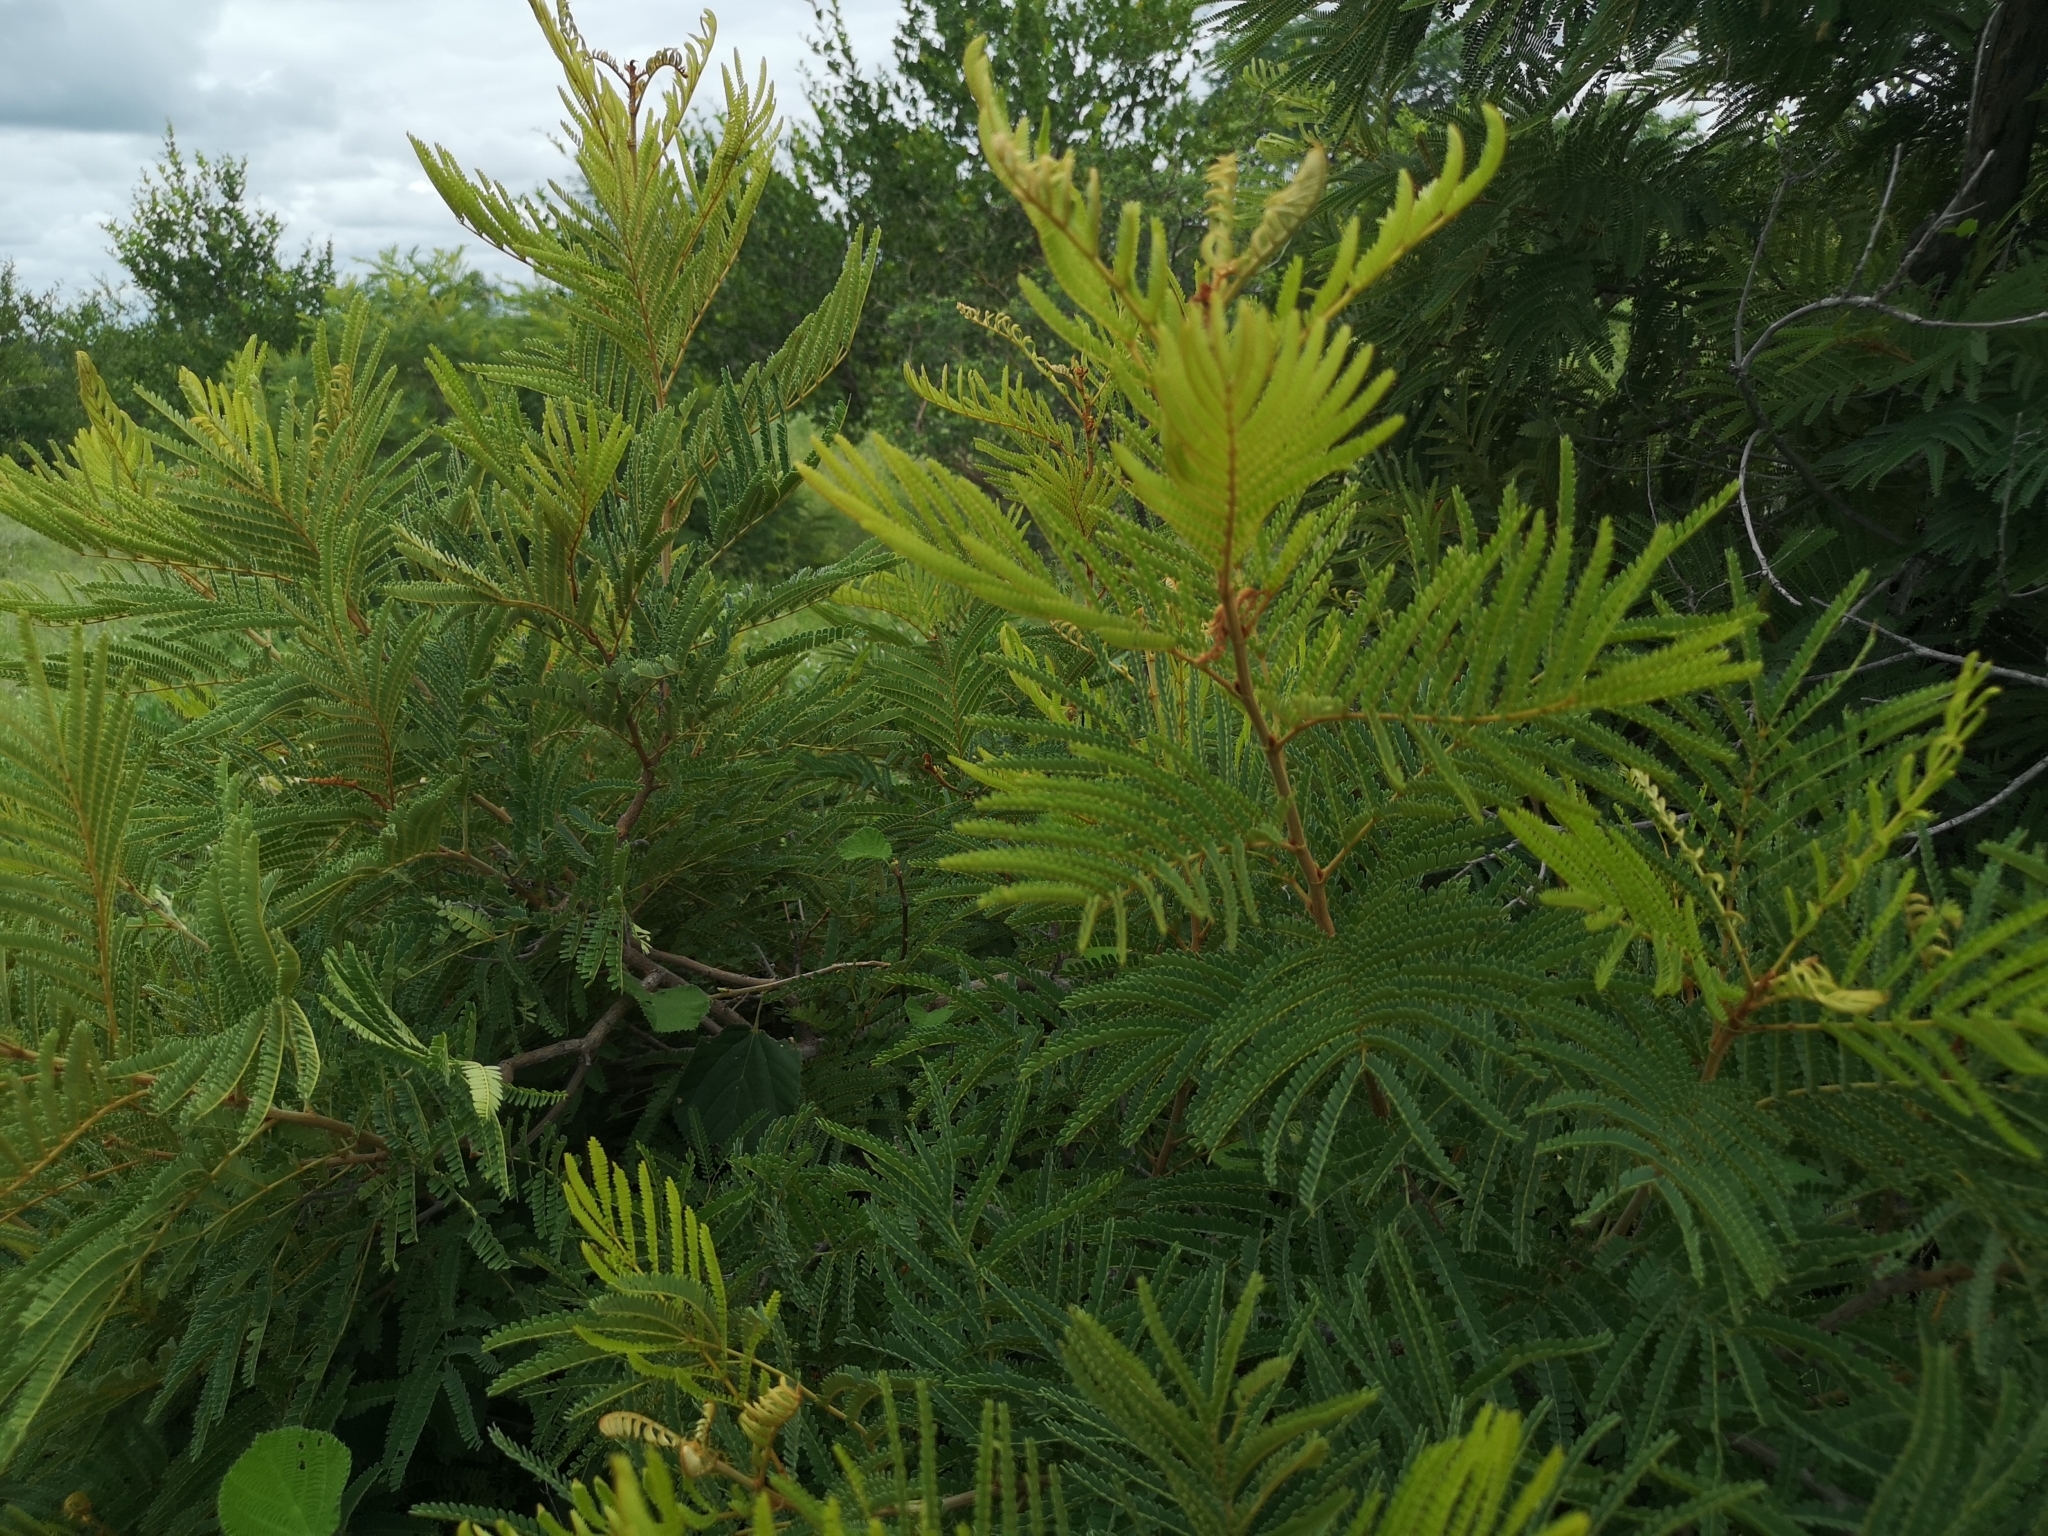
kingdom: Plantae
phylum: Tracheophyta
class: Magnoliopsida
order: Fabales
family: Fabaceae
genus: Peltophorum
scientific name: Peltophorum africanum
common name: African black wattle
